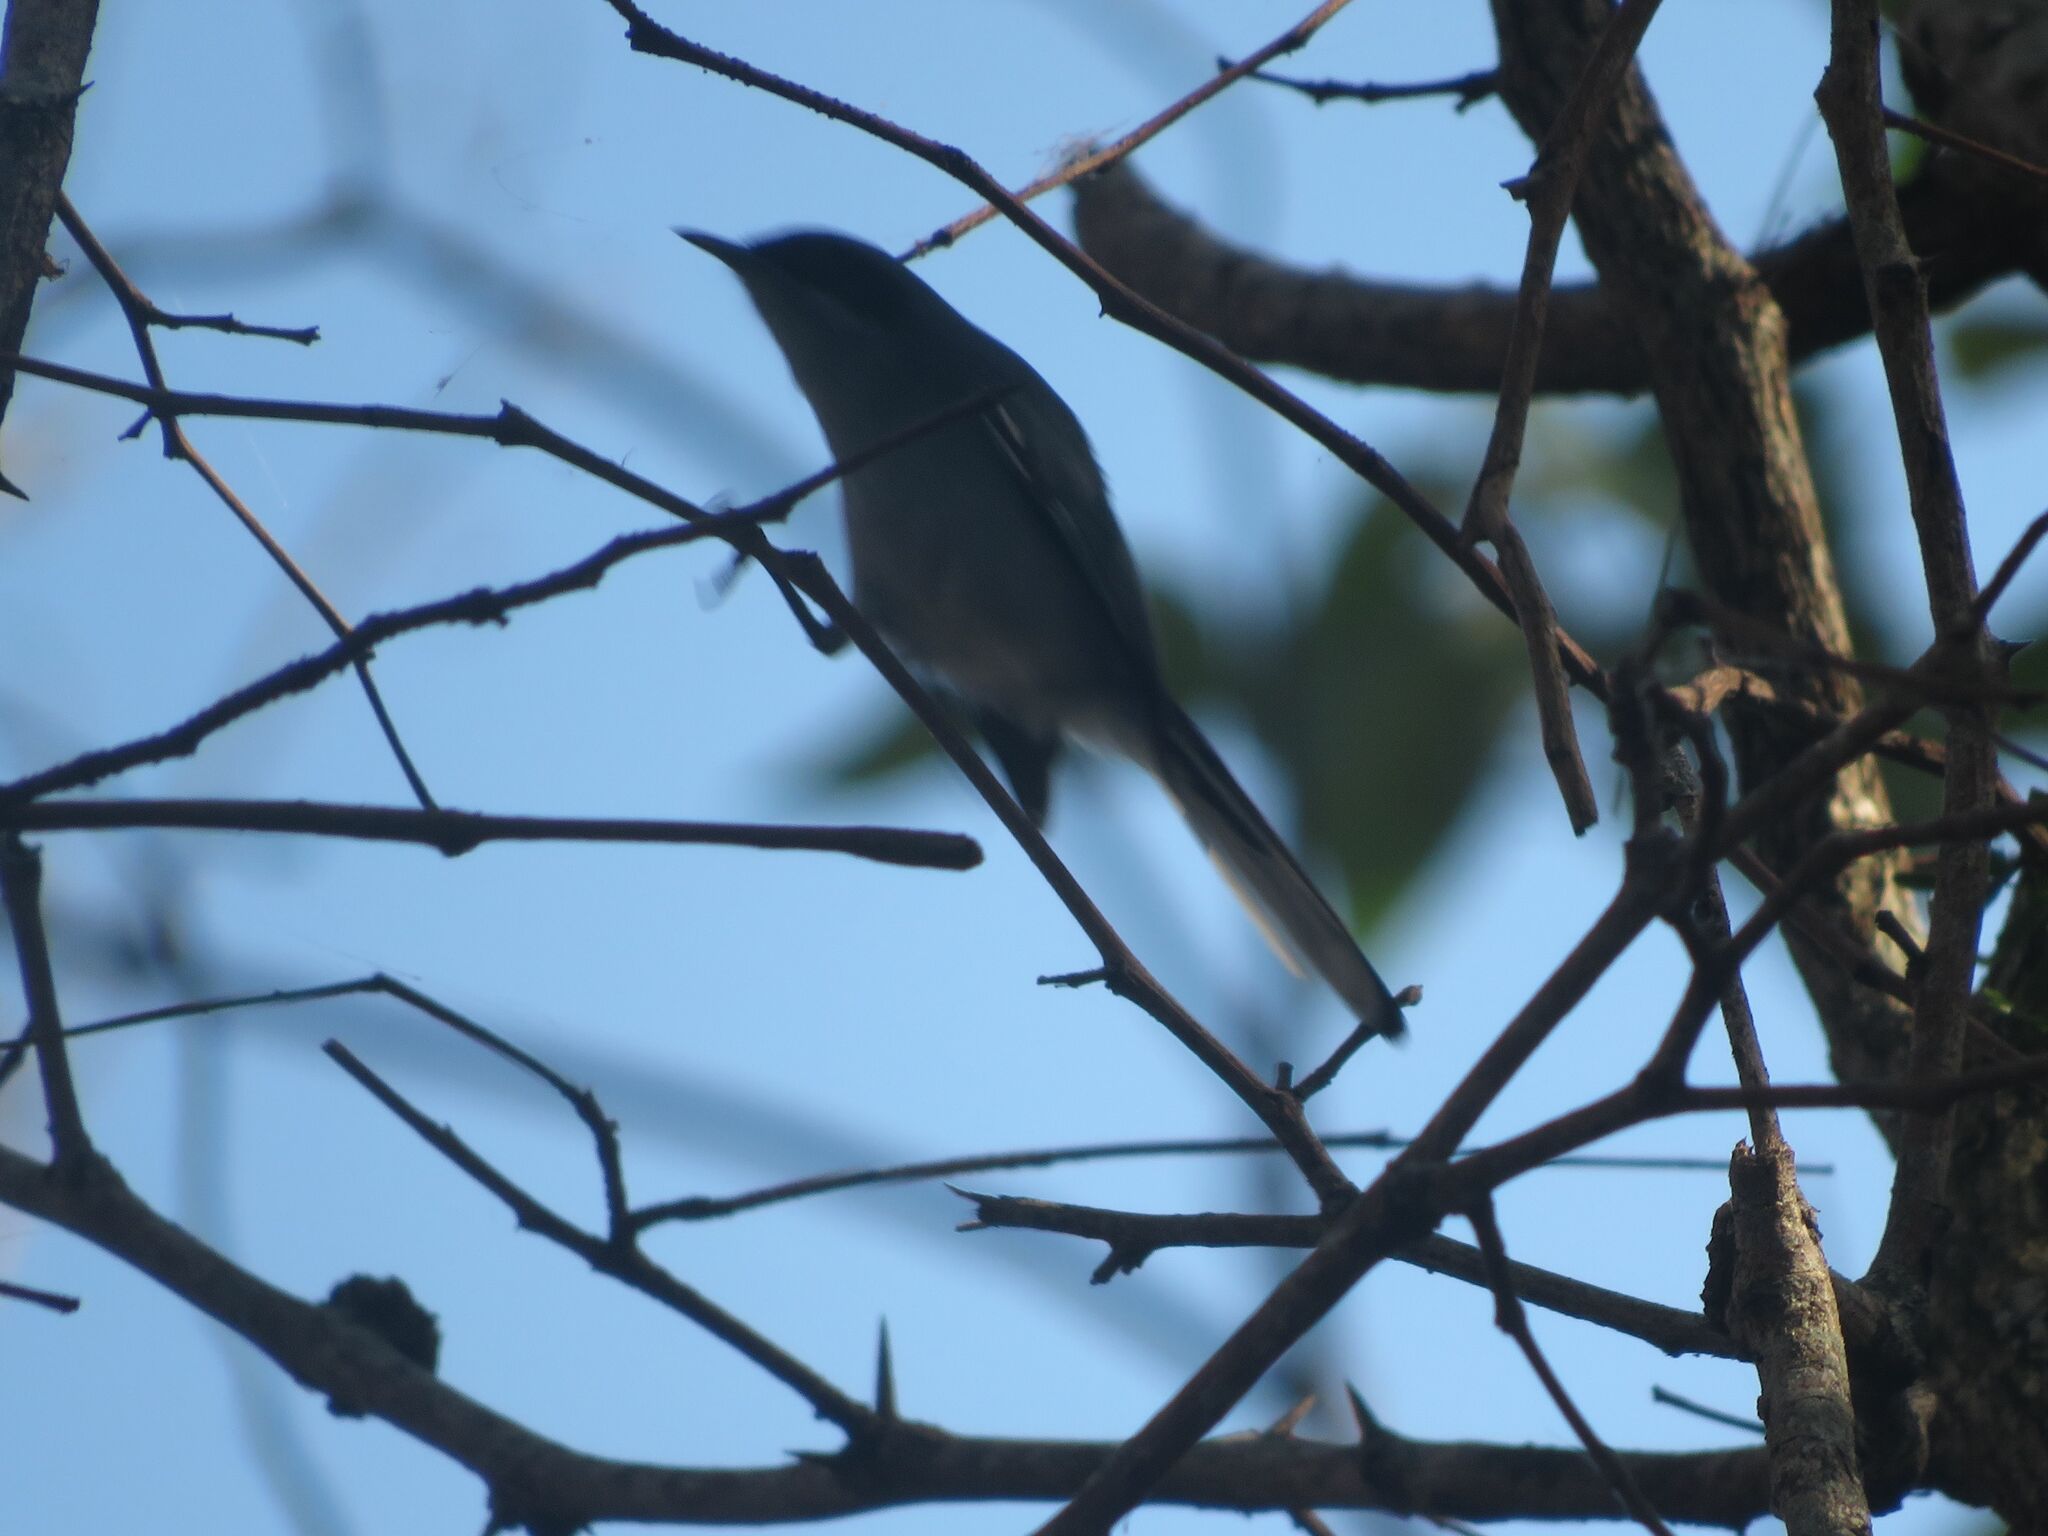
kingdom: Animalia
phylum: Chordata
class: Aves
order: Passeriformes
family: Polioptilidae
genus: Polioptila
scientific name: Polioptila dumicola
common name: Masked gnatcatcher
